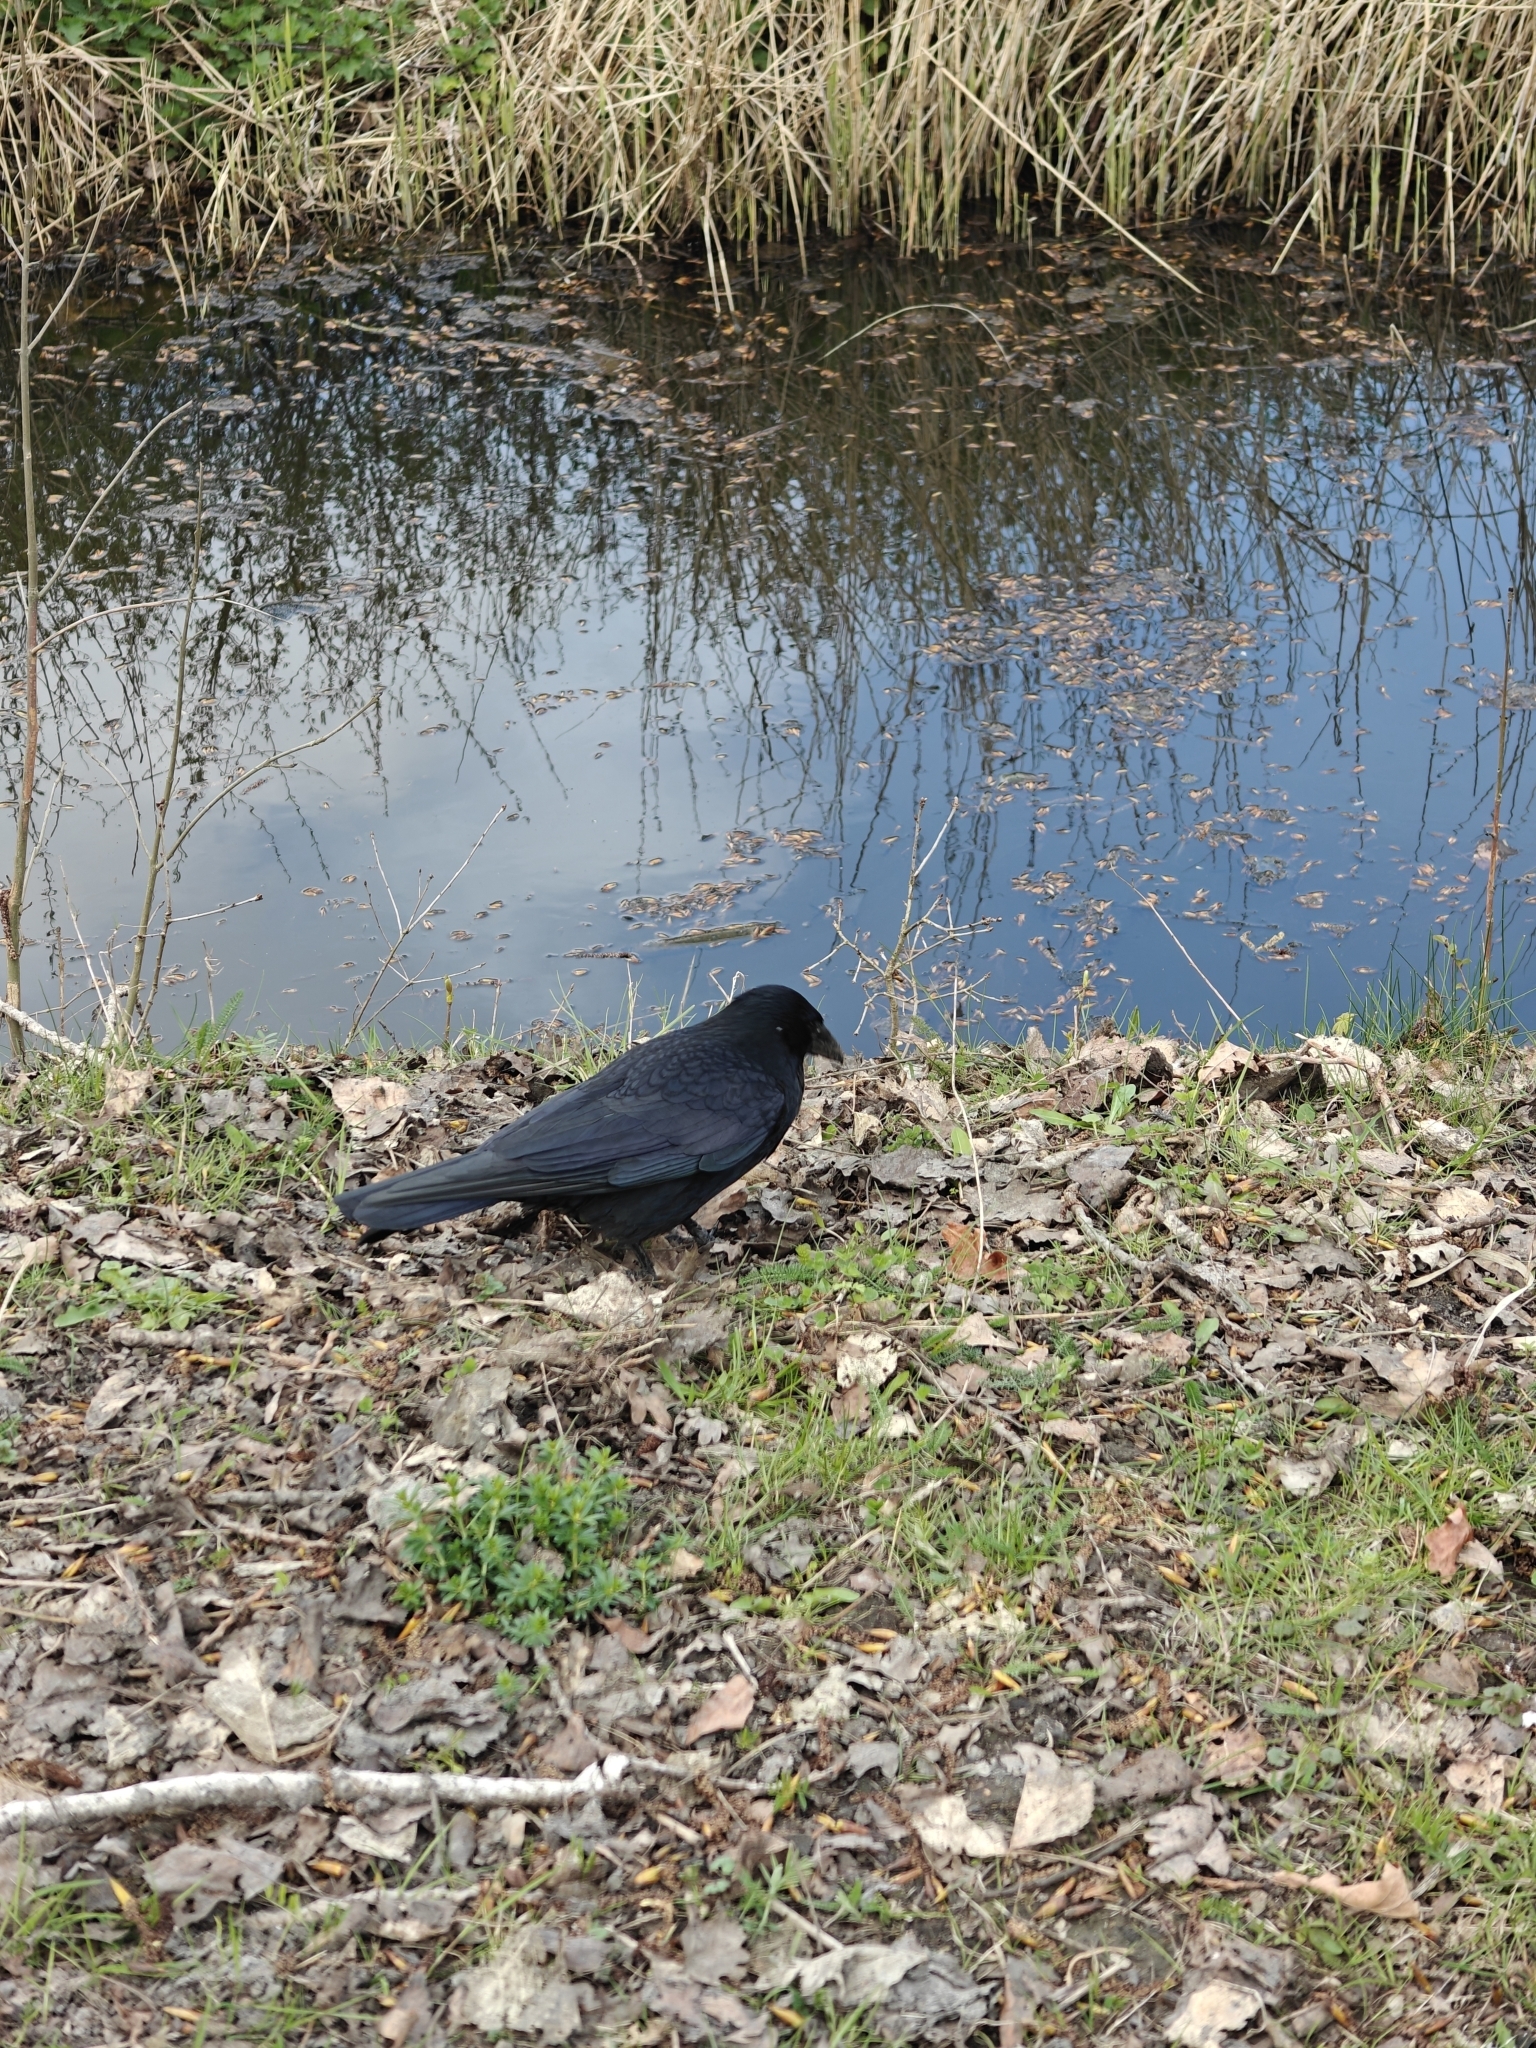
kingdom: Animalia
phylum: Chordata
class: Aves
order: Passeriformes
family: Corvidae
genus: Corvus
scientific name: Corvus corone
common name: Carrion crow
